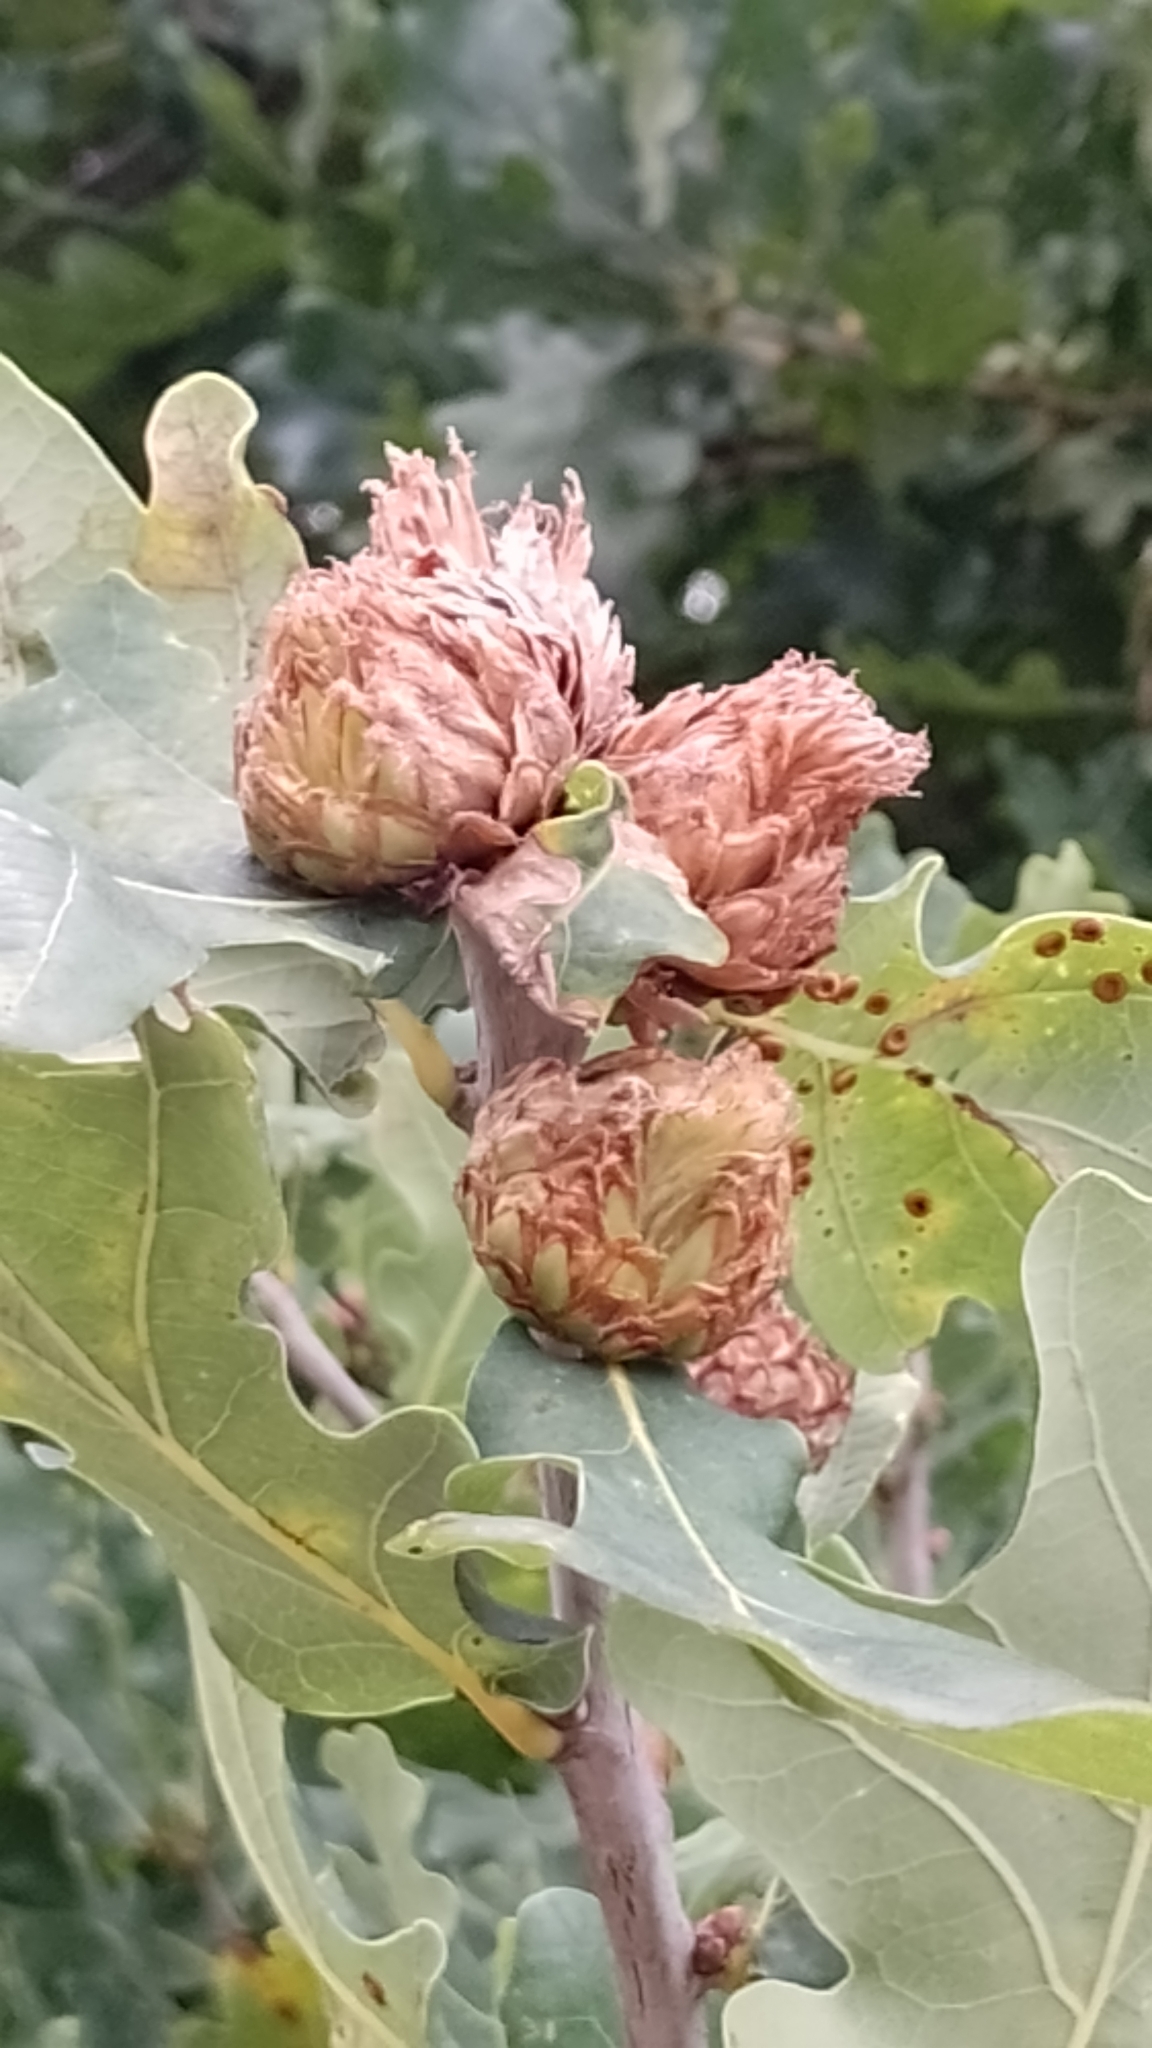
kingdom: Animalia
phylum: Arthropoda
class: Insecta
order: Hymenoptera
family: Cynipidae
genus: Andricus
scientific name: Andricus foecundatrix
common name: Artichoke gall
